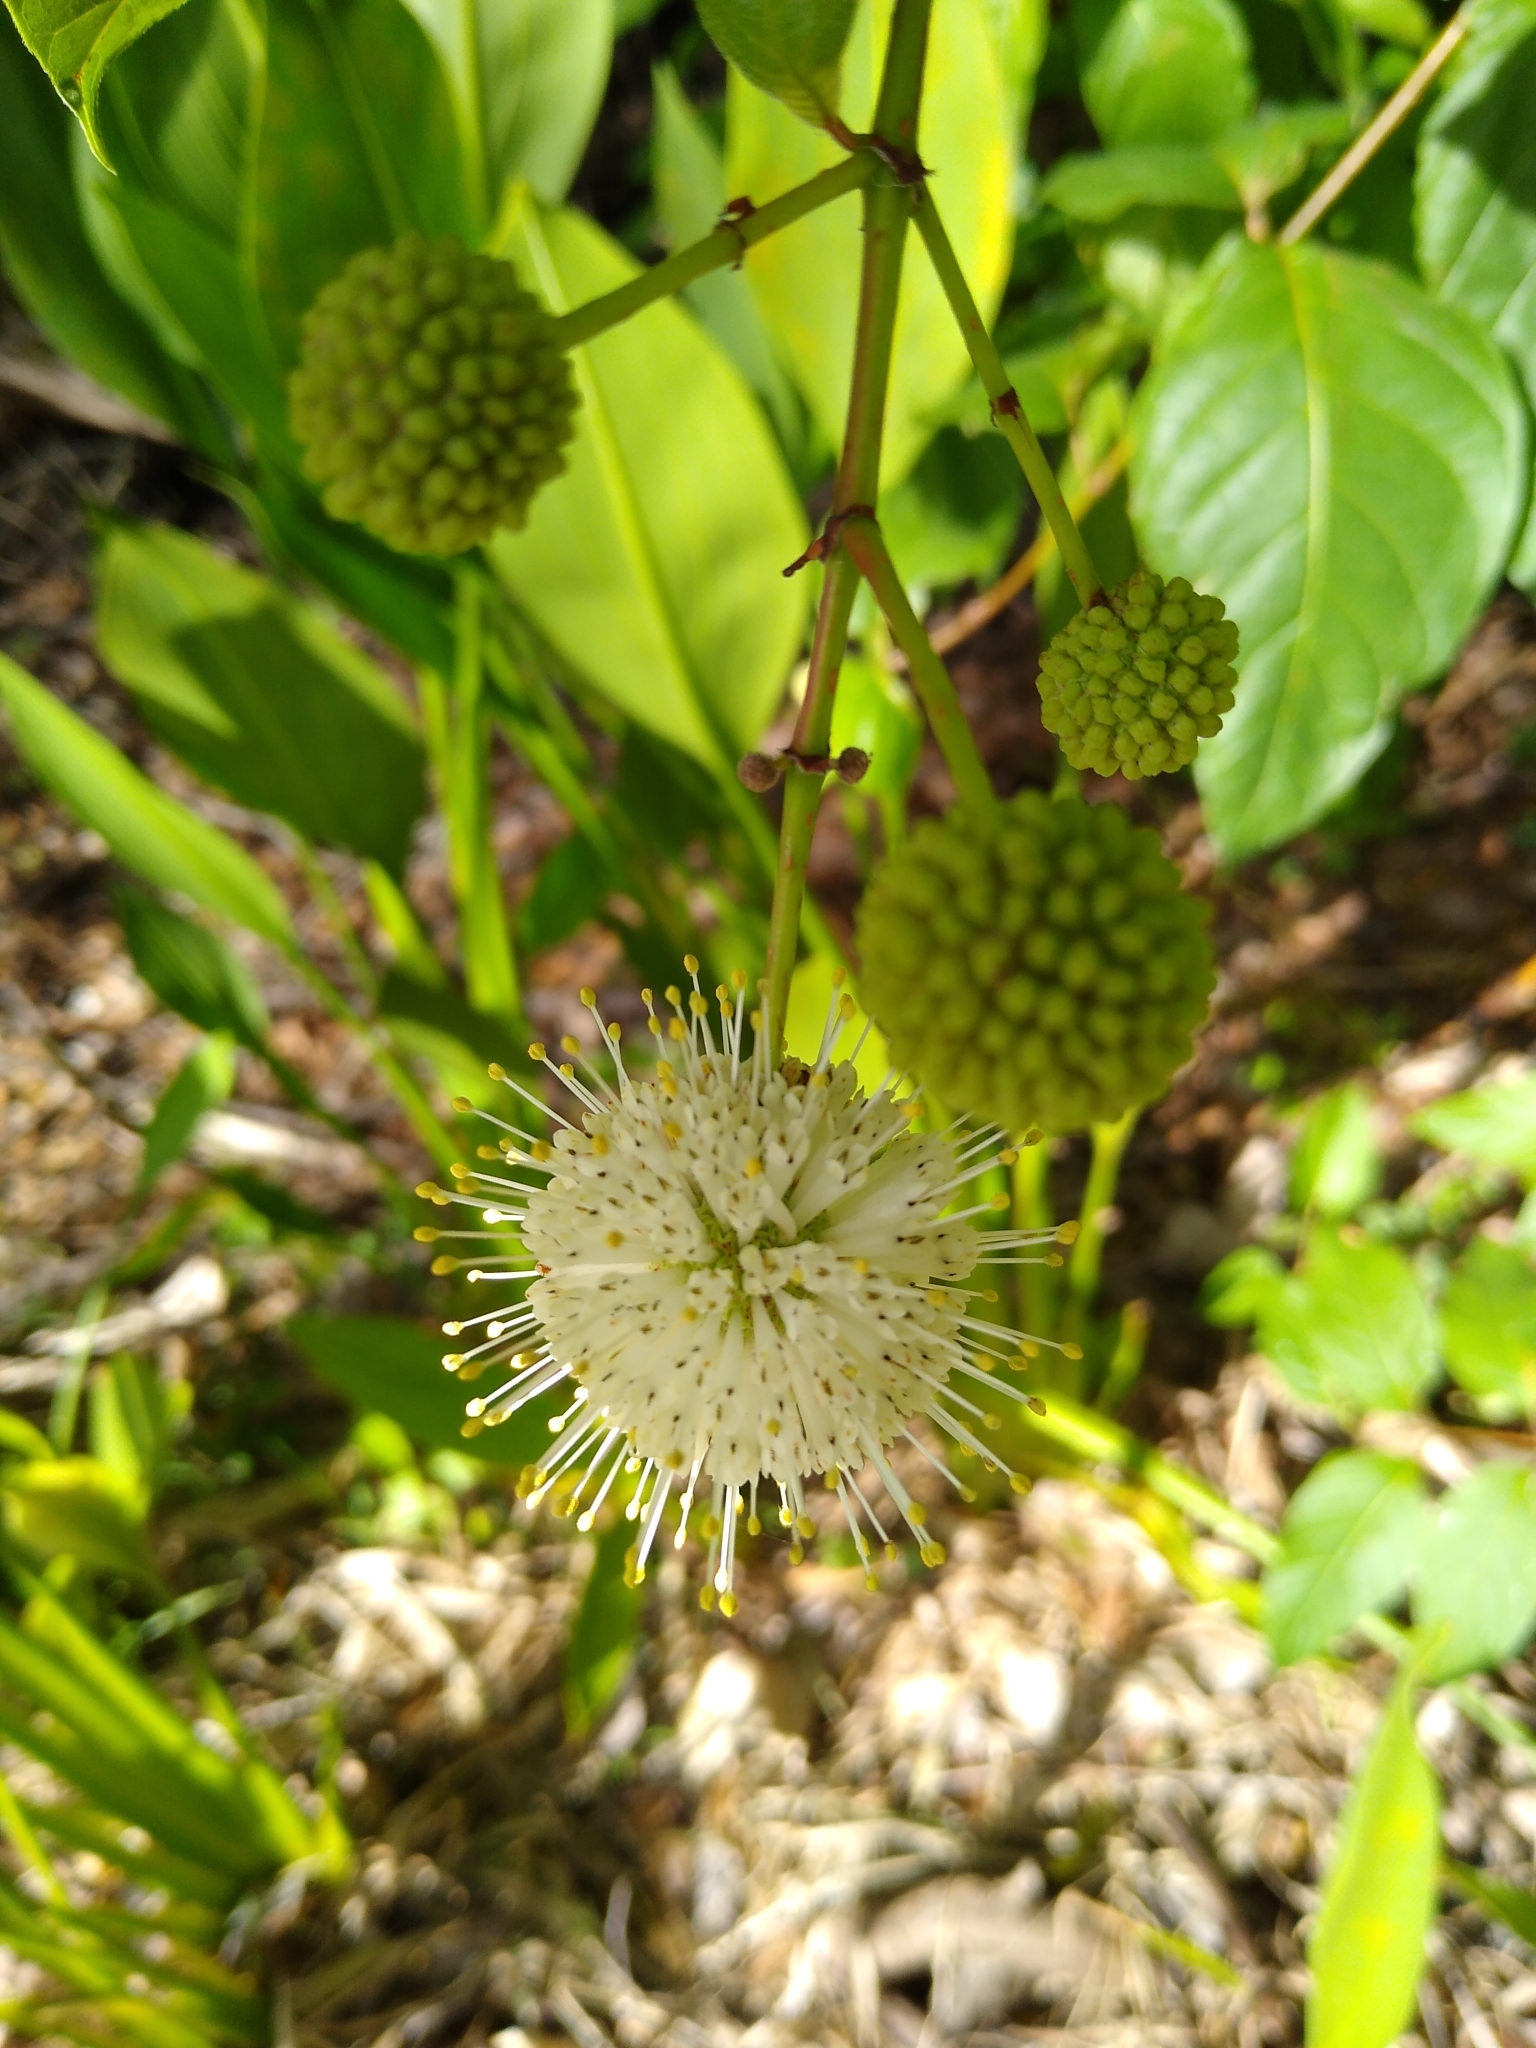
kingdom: Plantae
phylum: Tracheophyta
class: Magnoliopsida
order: Gentianales
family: Rubiaceae
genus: Cephalanthus
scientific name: Cephalanthus occidentalis
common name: Button-willow
